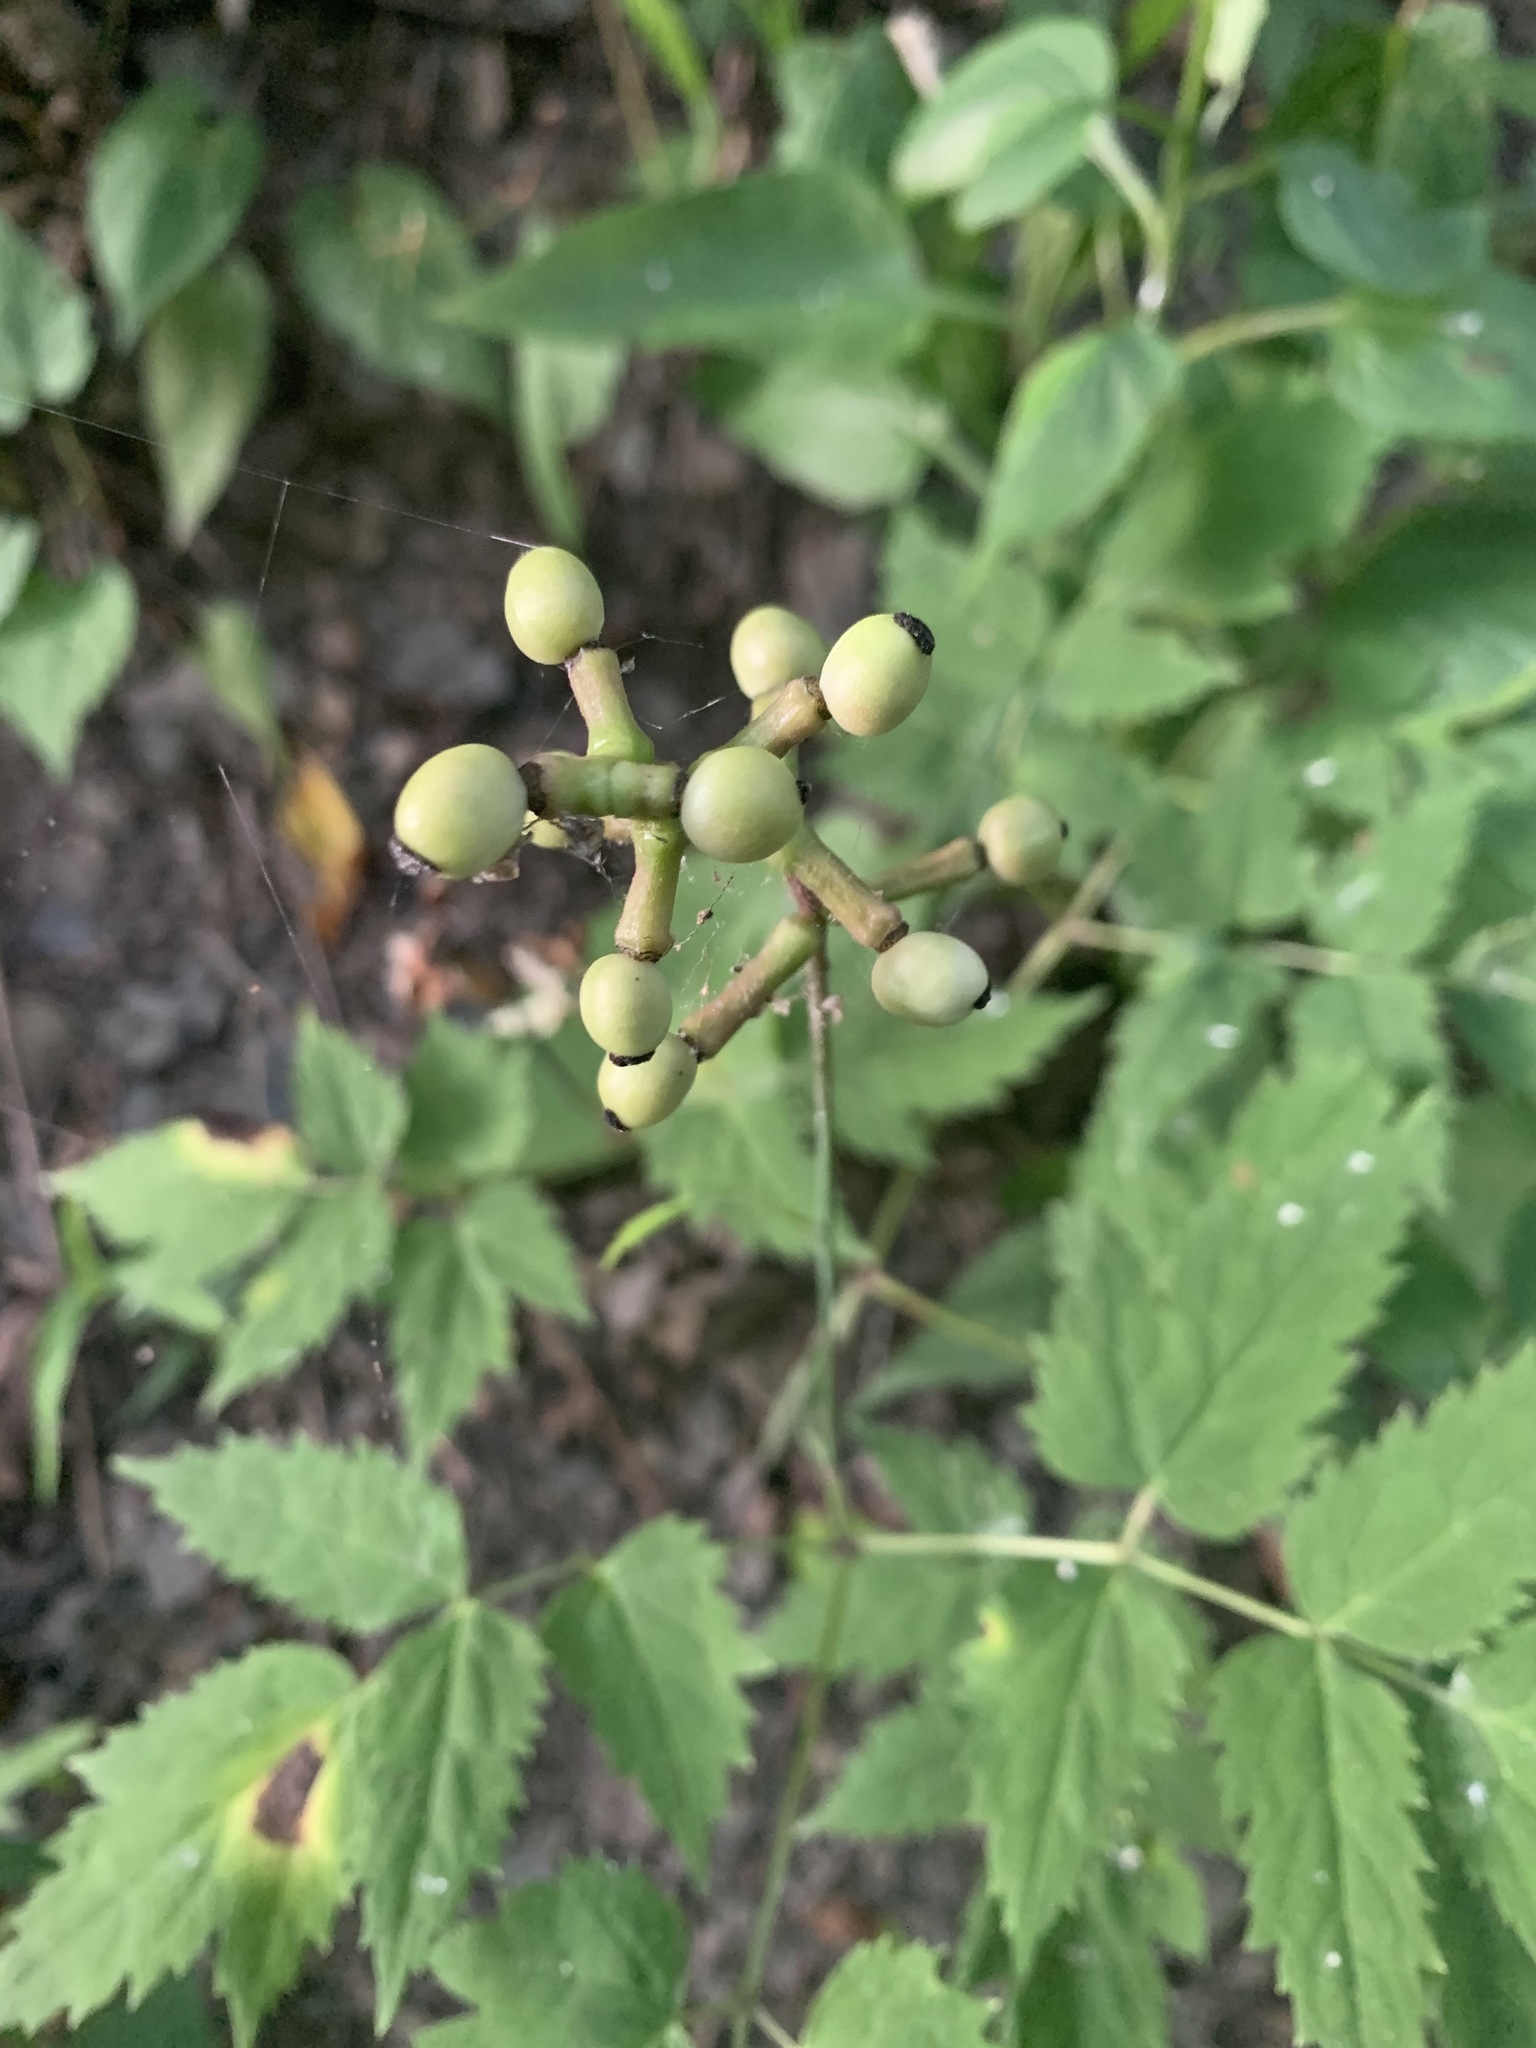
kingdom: Plantae
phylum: Tracheophyta
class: Magnoliopsida
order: Ranunculales
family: Ranunculaceae
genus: Actaea
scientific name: Actaea pachypoda
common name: Doll's-eyes
